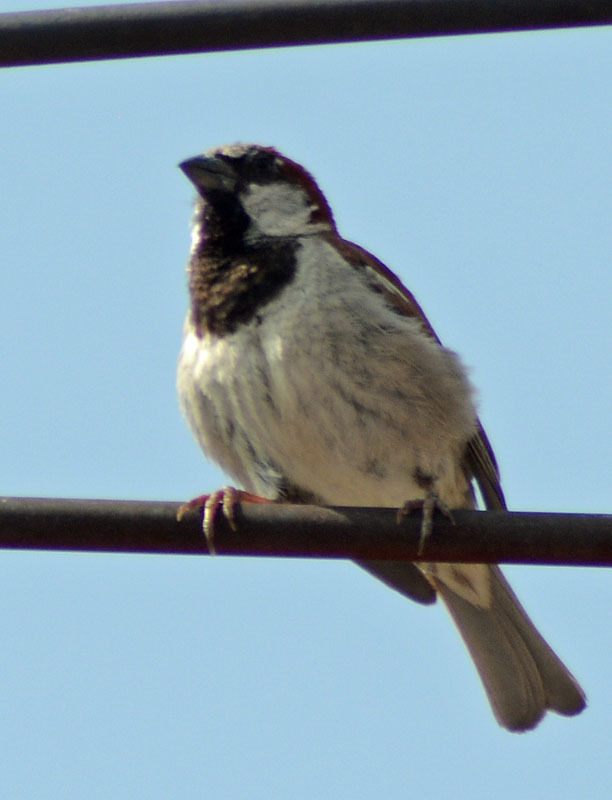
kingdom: Animalia
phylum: Chordata
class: Aves
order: Passeriformes
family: Passeridae
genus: Passer
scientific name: Passer domesticus
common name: House sparrow
